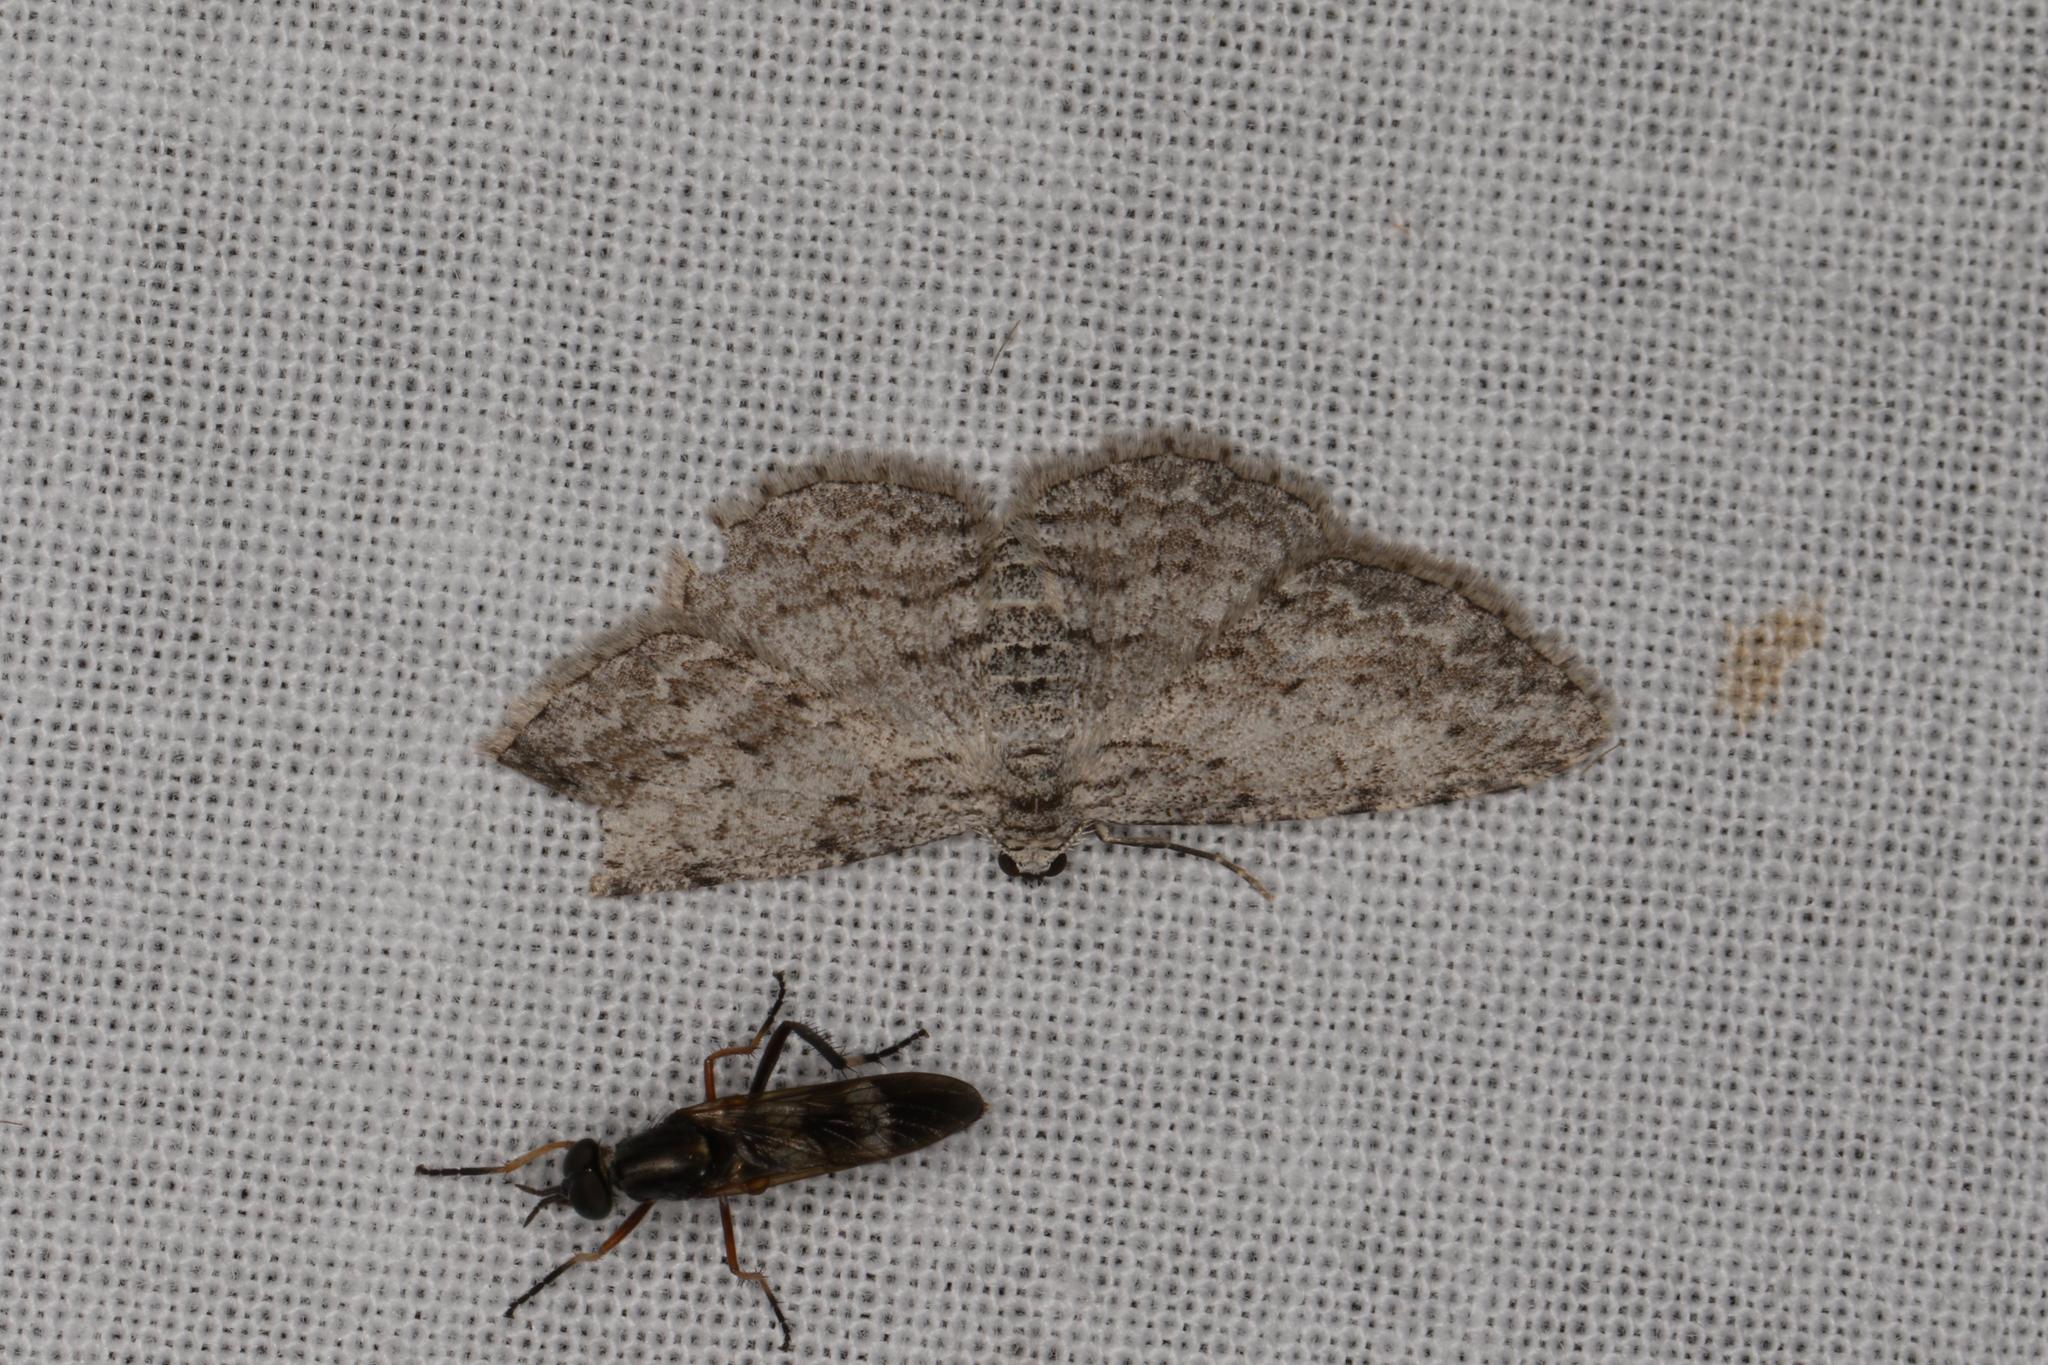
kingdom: Animalia
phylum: Arthropoda
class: Insecta
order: Lepidoptera
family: Geometridae
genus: Phelotis
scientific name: Phelotis cognata
